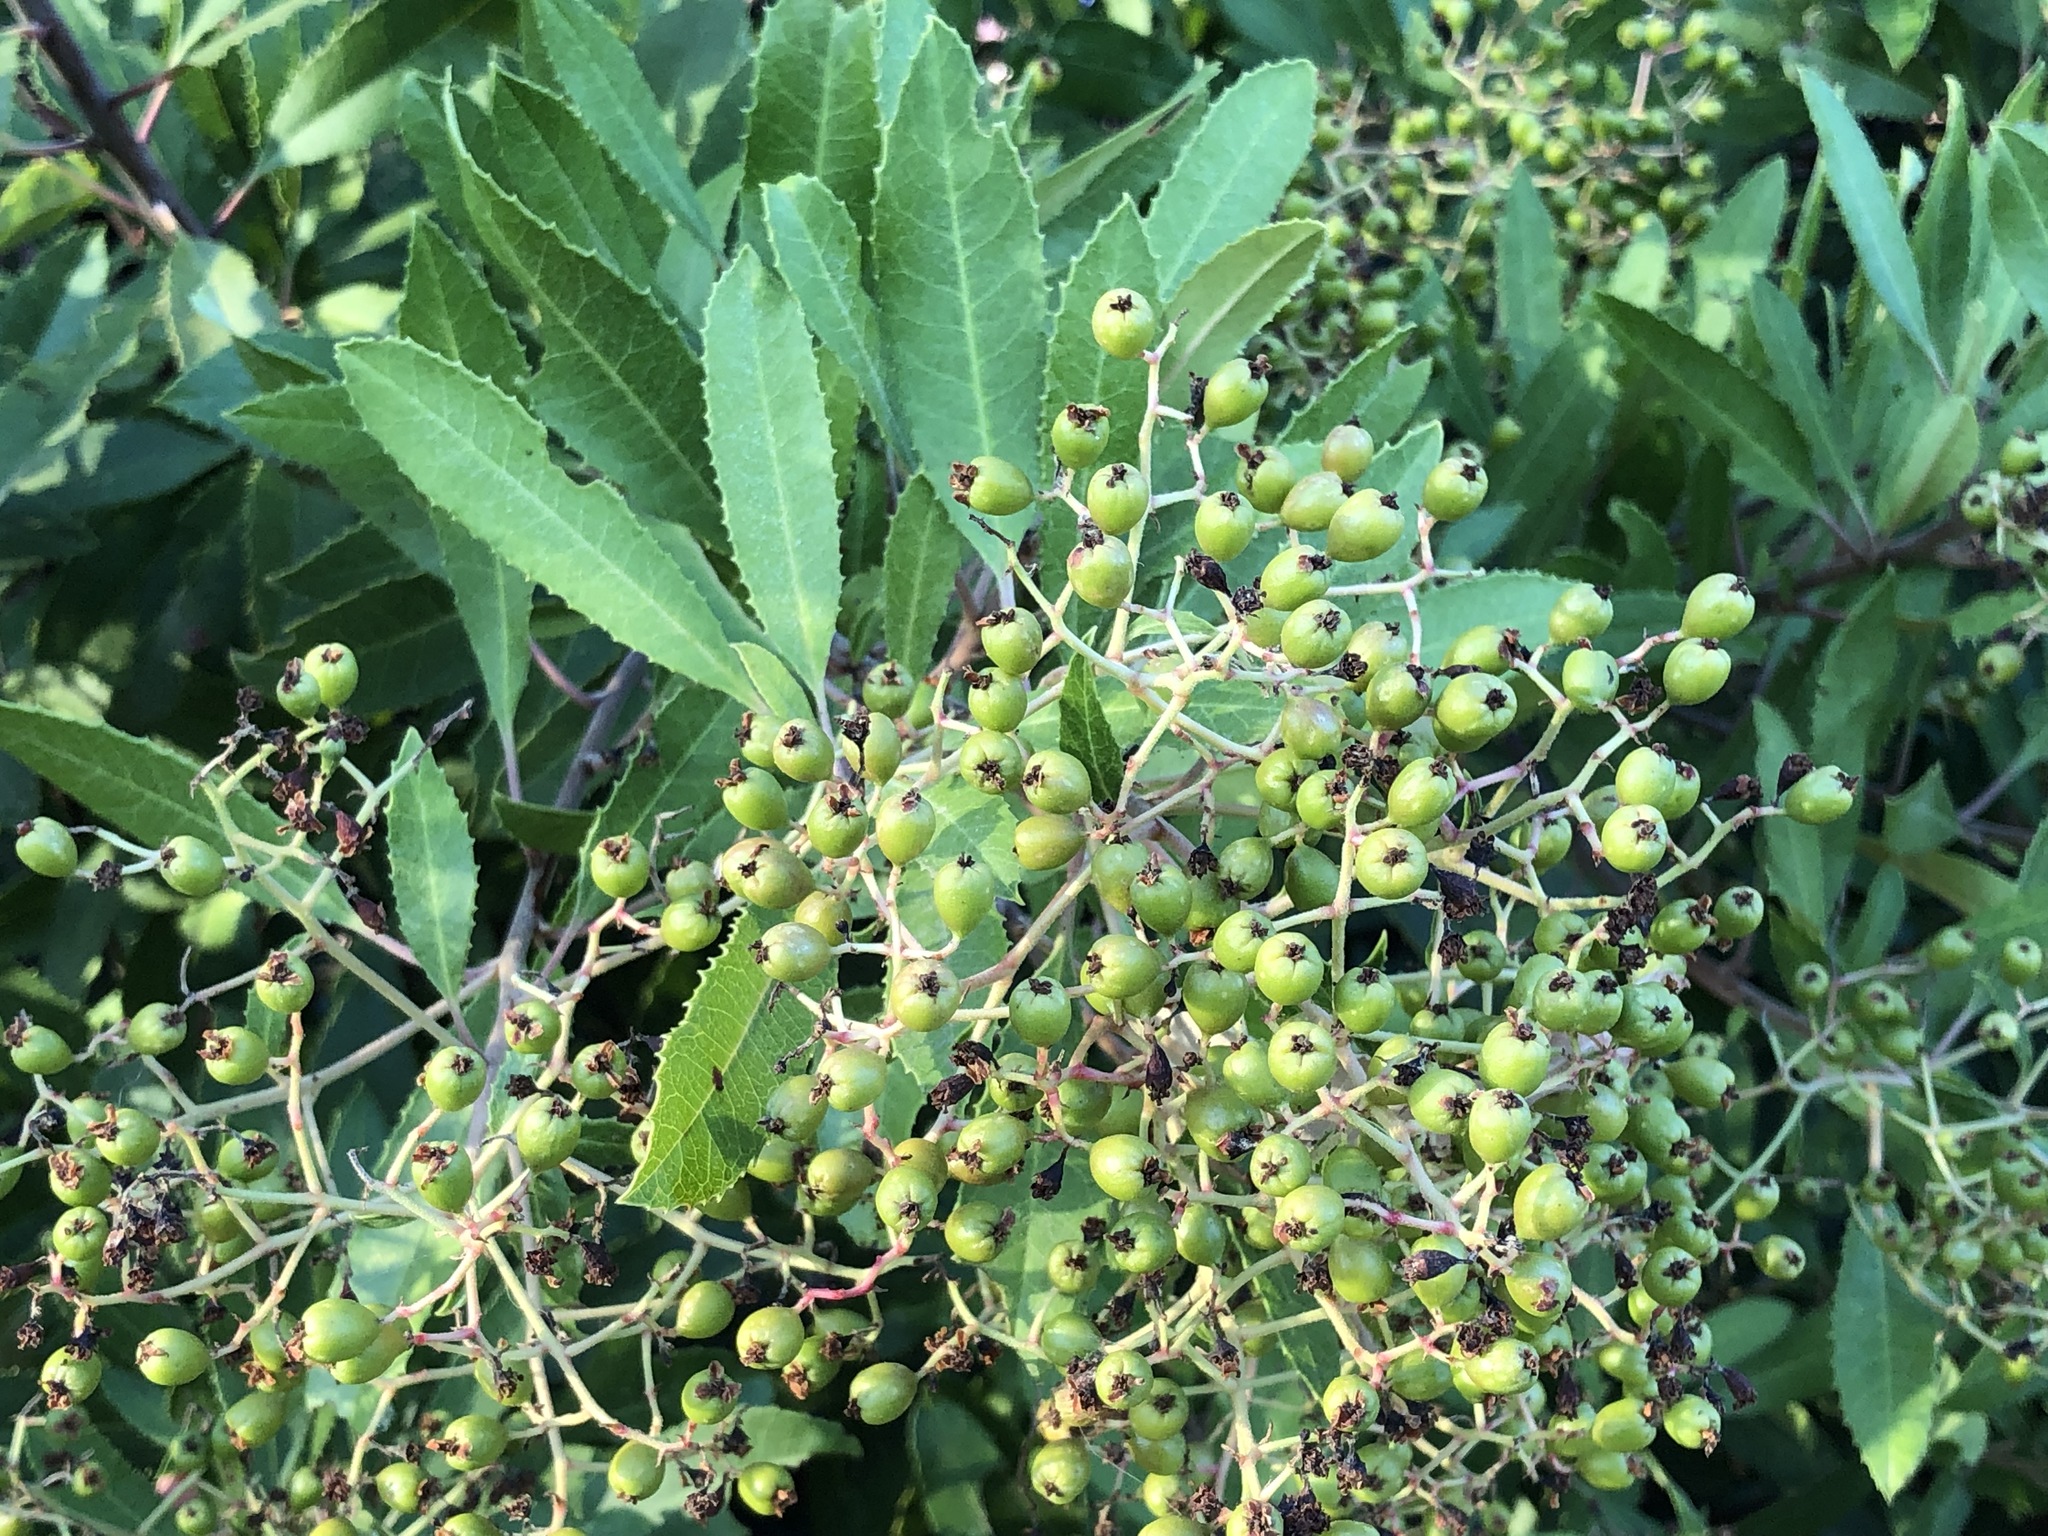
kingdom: Plantae
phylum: Tracheophyta
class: Magnoliopsida
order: Rosales
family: Rosaceae
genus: Heteromeles
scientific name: Heteromeles arbutifolia
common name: California-holly
